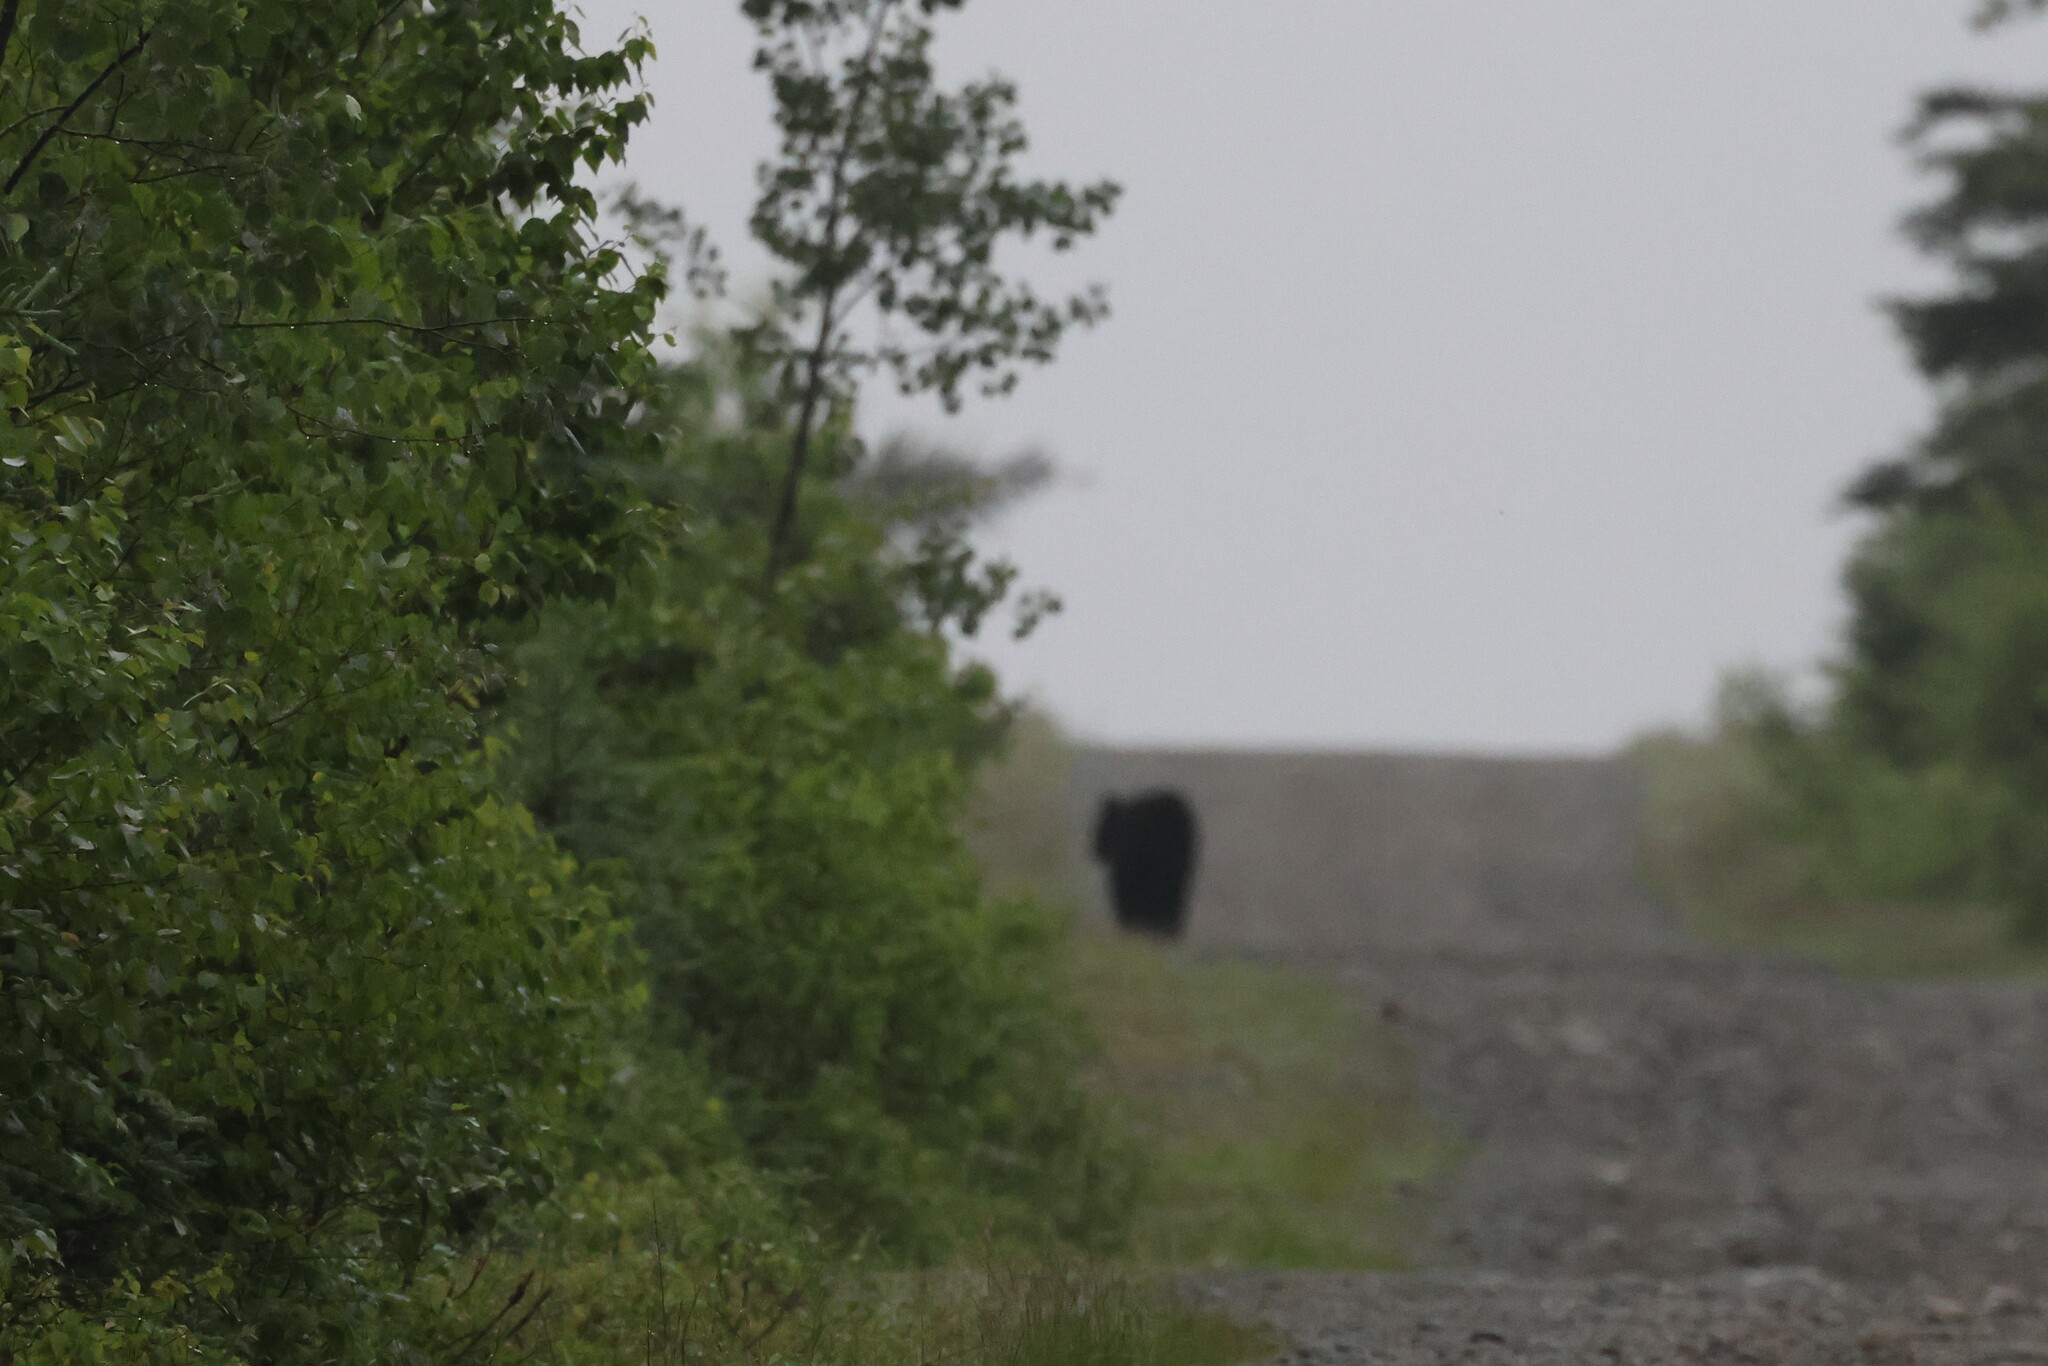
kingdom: Animalia
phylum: Chordata
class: Mammalia
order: Carnivora
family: Ursidae
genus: Ursus
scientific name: Ursus americanus
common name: American black bear
